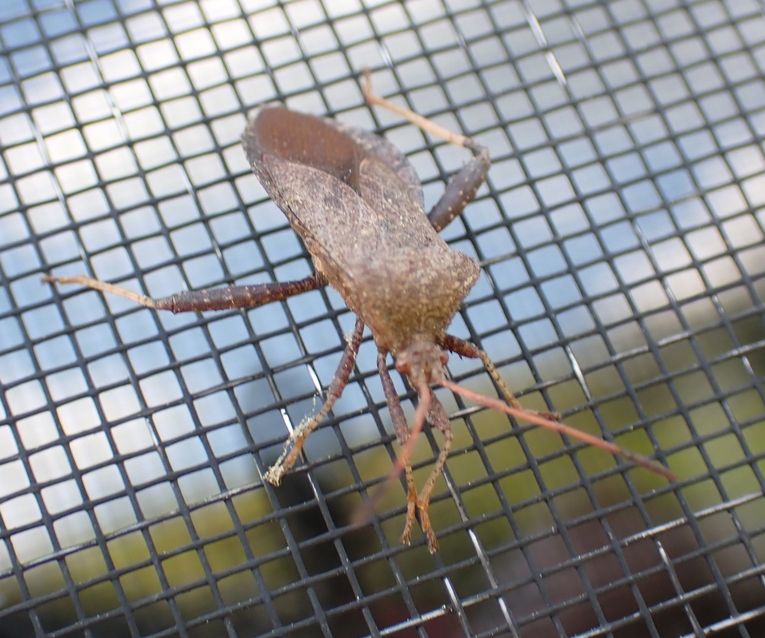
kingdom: Animalia
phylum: Arthropoda
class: Insecta
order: Hemiptera
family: Coreidae
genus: Euthochtha
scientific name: Euthochtha galeator
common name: Helmeted squash bug
